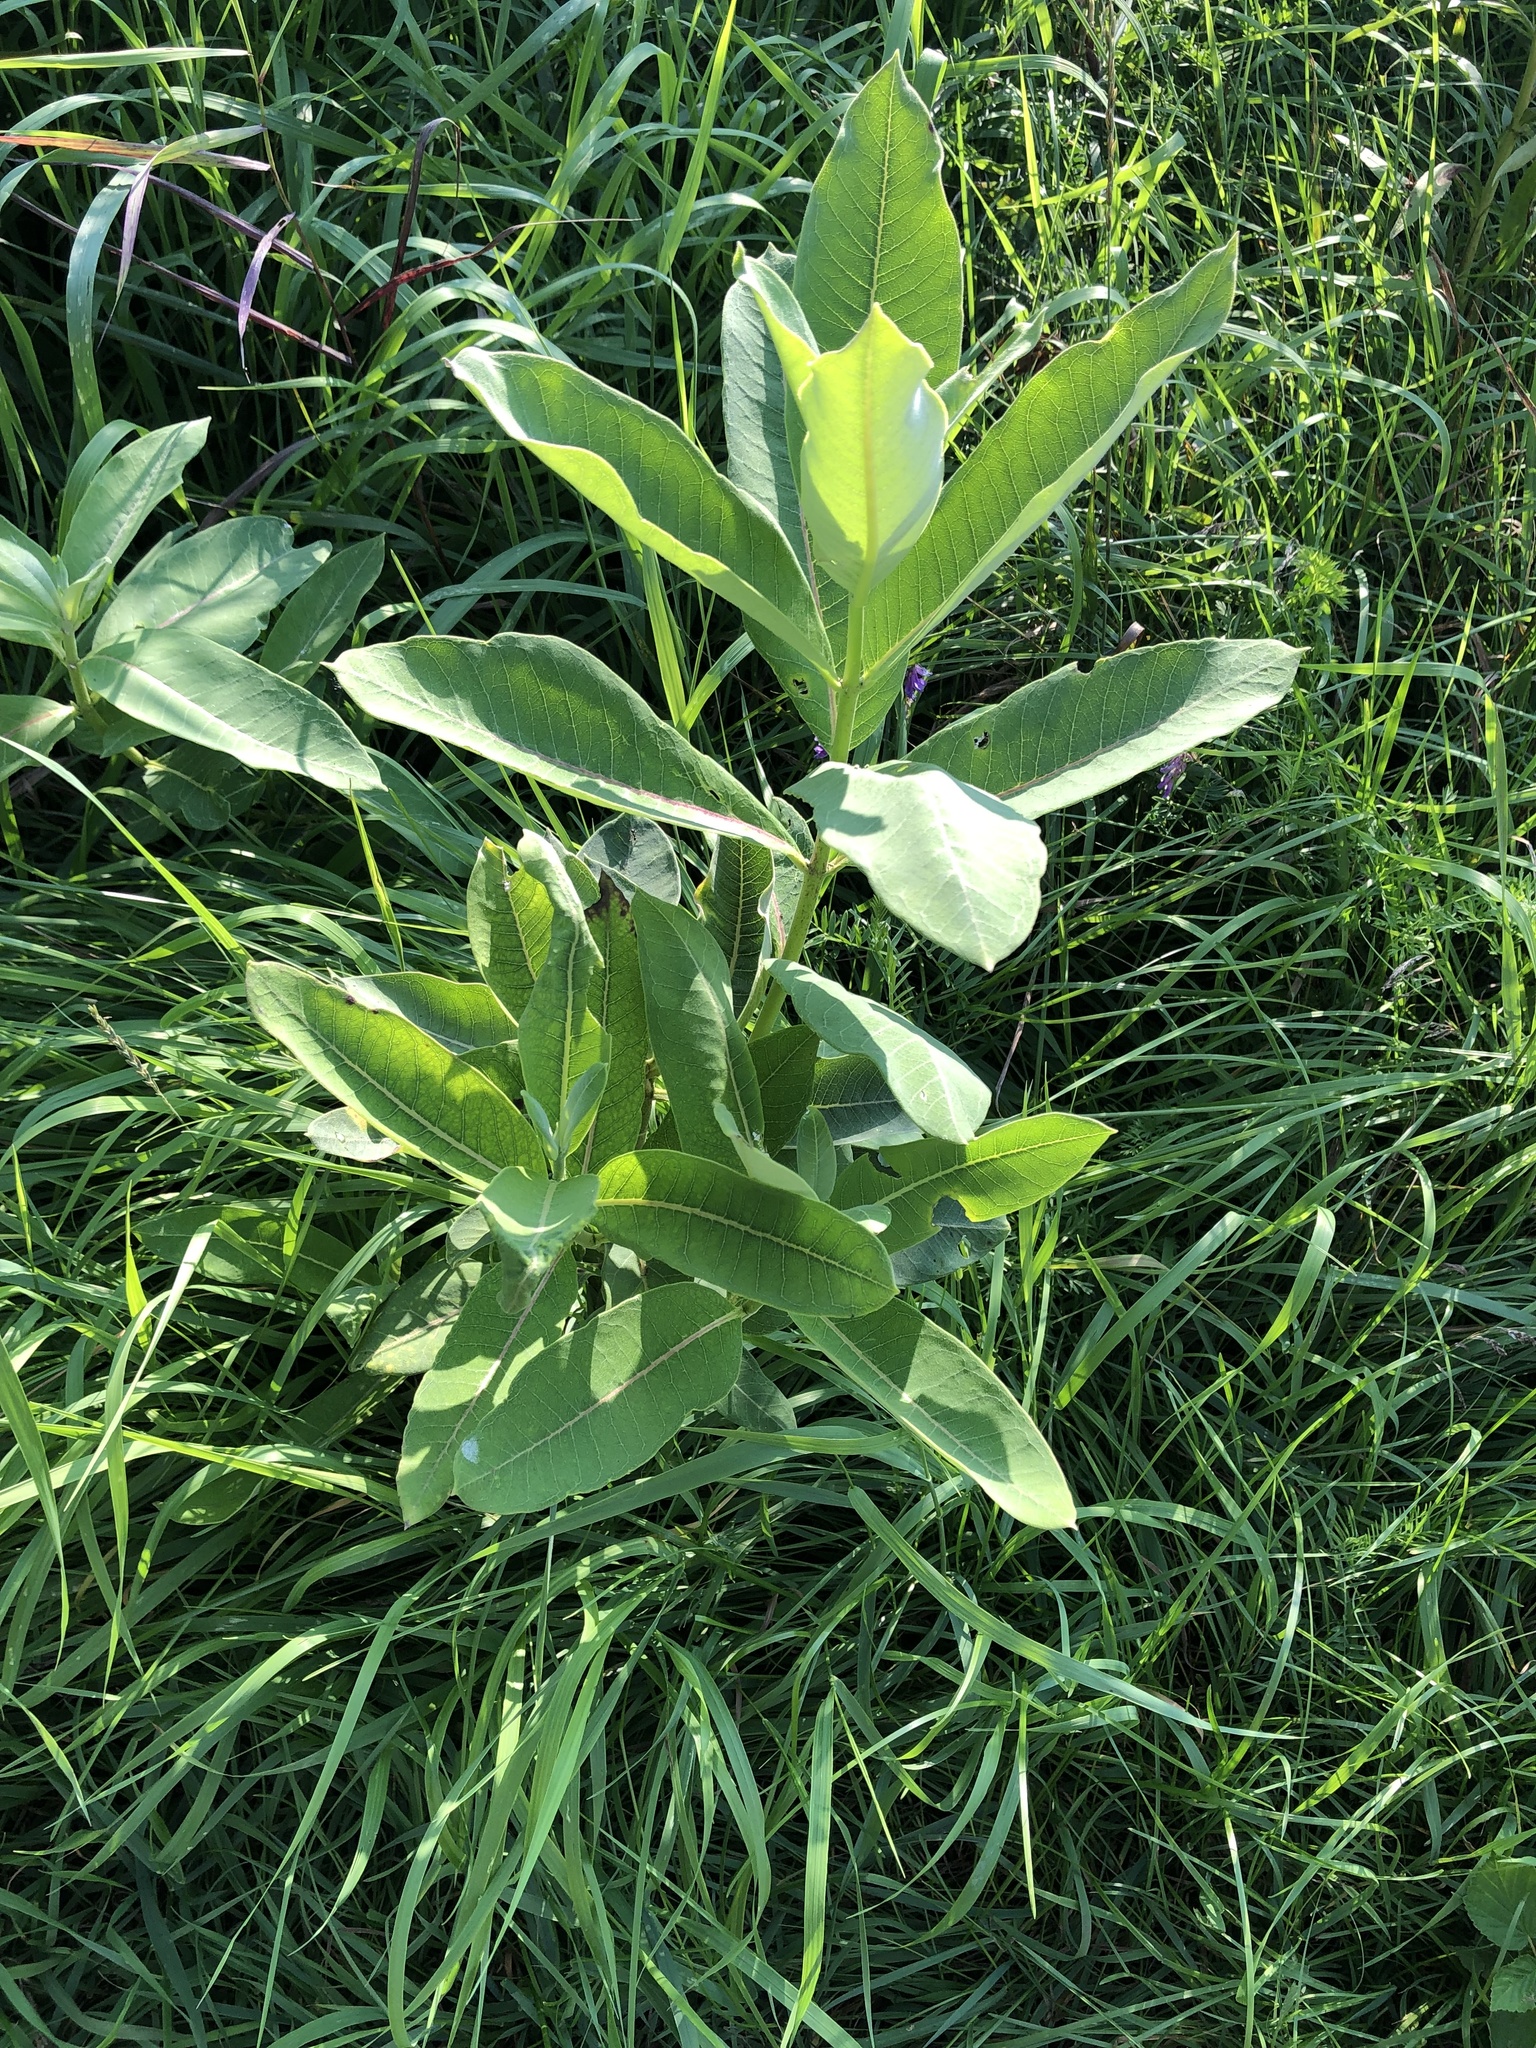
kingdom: Plantae
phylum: Tracheophyta
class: Magnoliopsida
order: Gentianales
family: Apocynaceae
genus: Asclepias
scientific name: Asclepias syriaca
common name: Common milkweed
